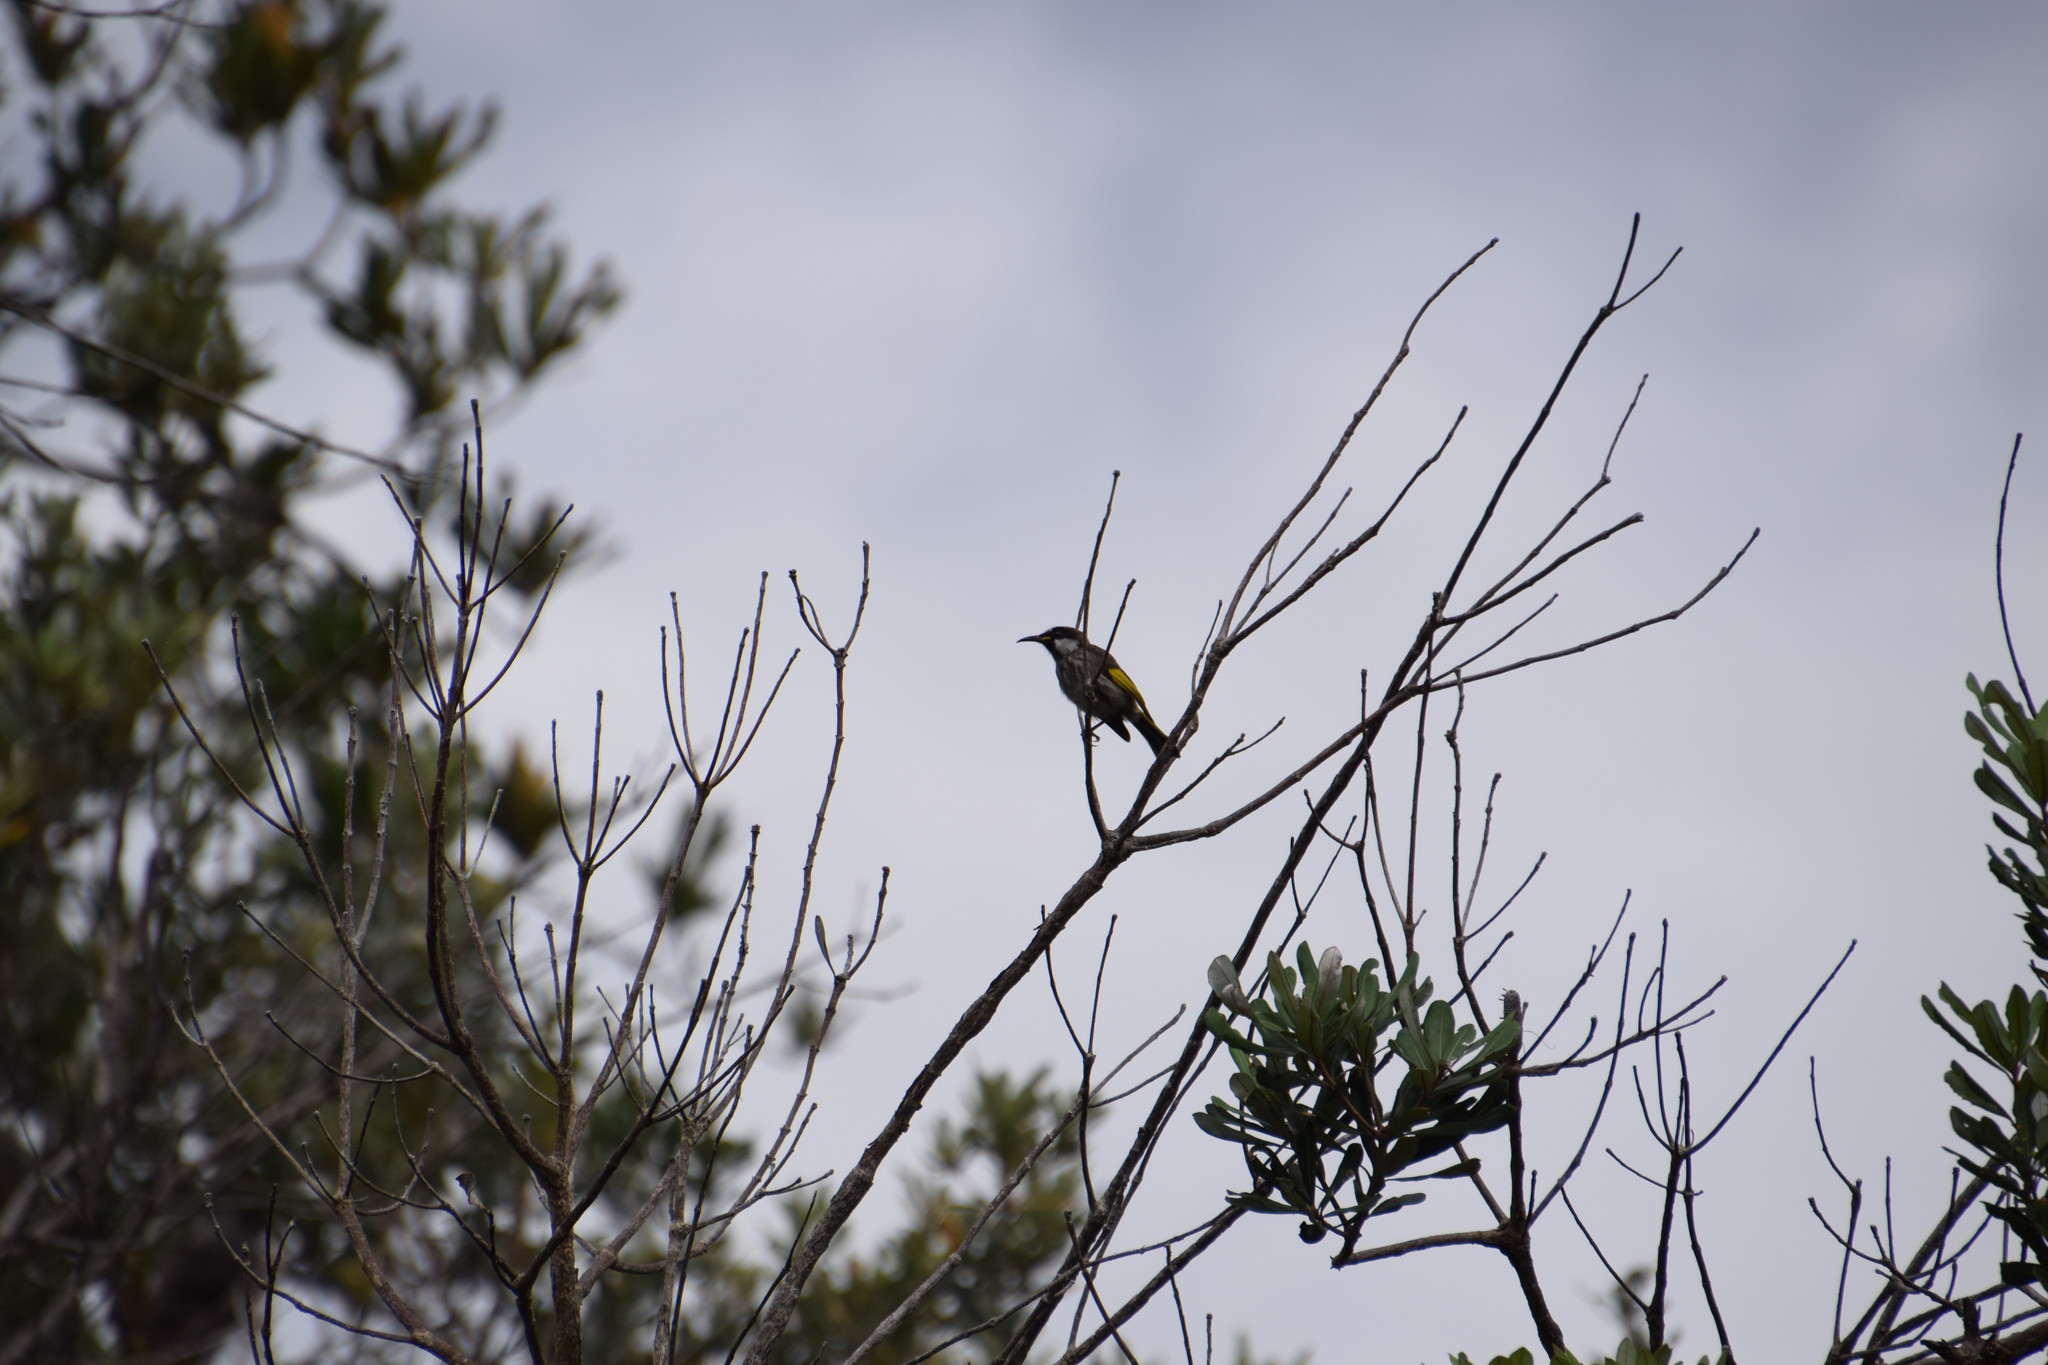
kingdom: Animalia
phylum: Chordata
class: Aves
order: Passeriformes
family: Meliphagidae
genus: Phylidonyris
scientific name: Phylidonyris niger
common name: White-cheeked honeyeater
